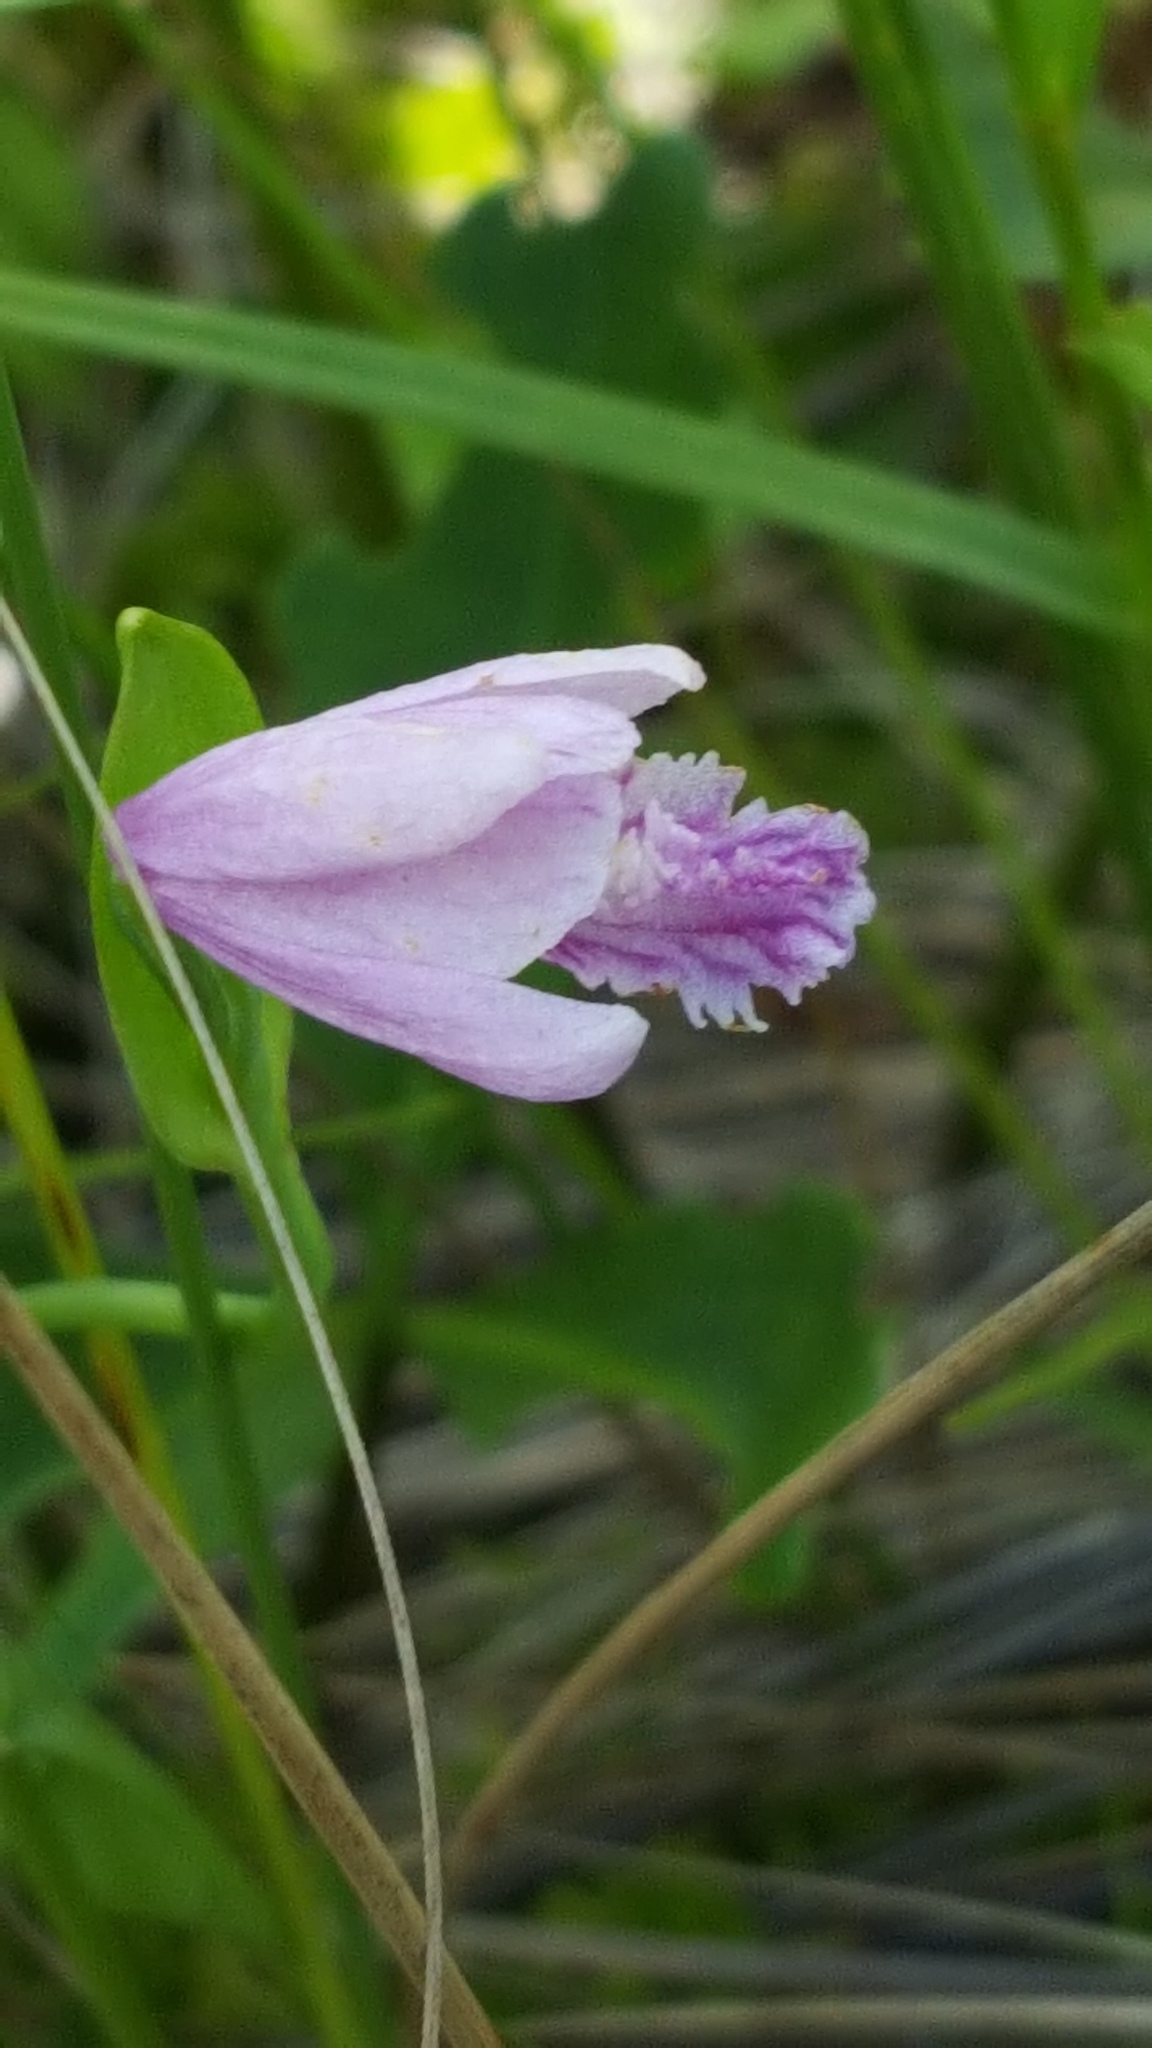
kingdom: Plantae
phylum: Tracheophyta
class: Liliopsida
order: Asparagales
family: Orchidaceae
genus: Pogonia
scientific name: Pogonia ophioglossoides
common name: Rose pogonia
